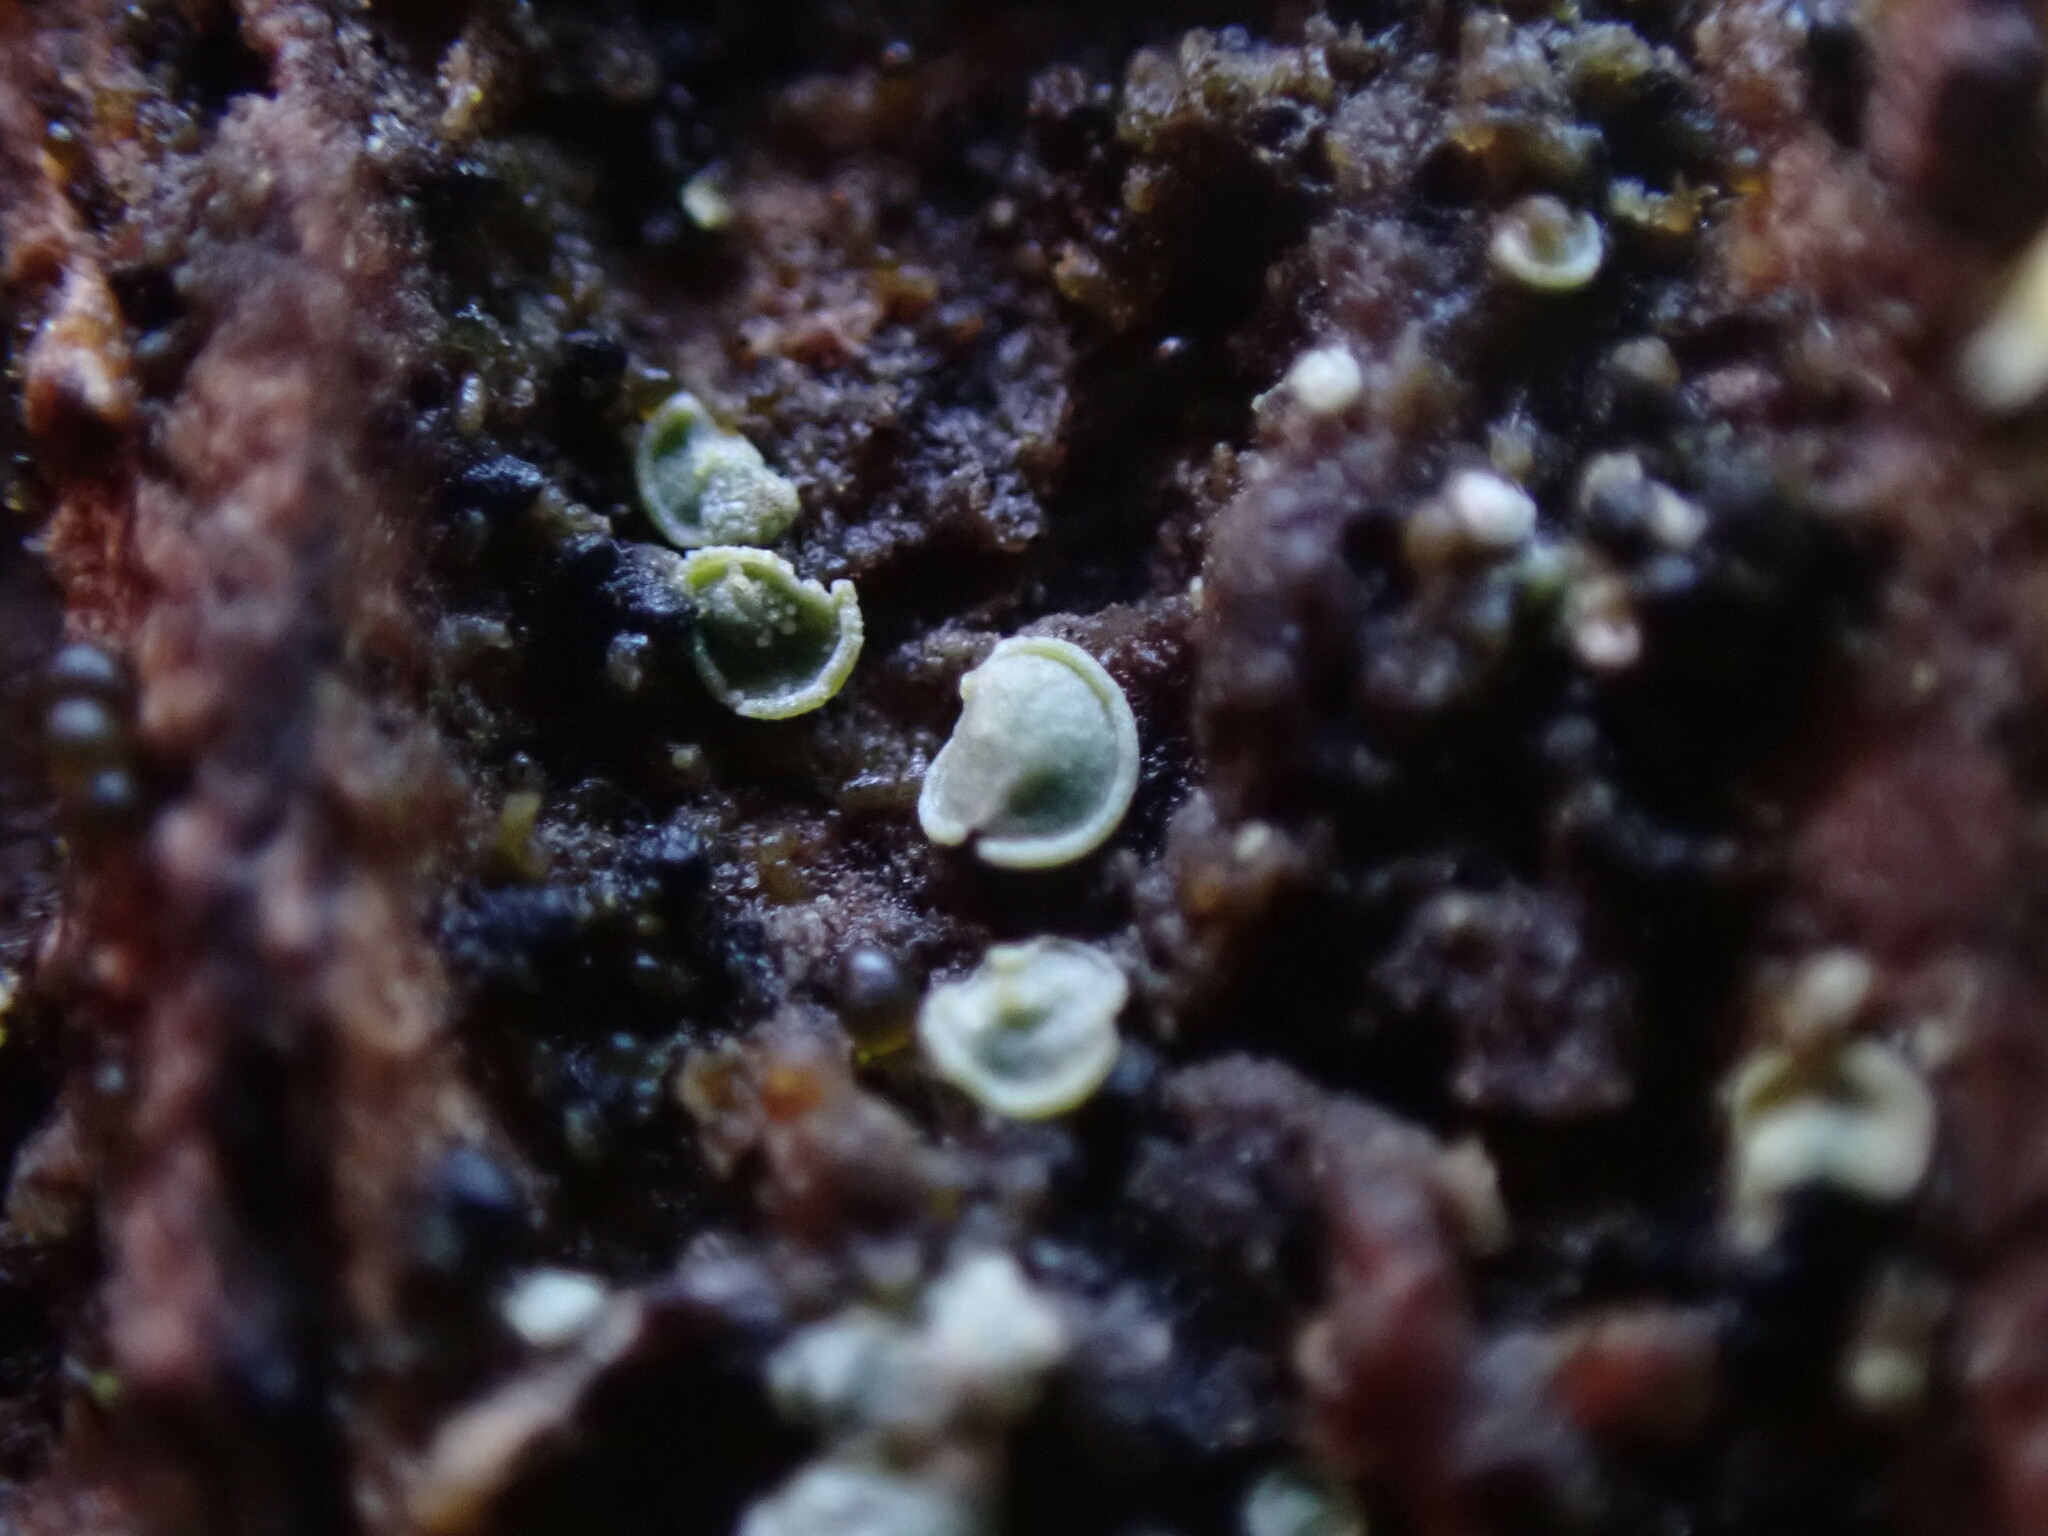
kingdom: Fungi
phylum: Ascomycota
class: Eurotiomycetes
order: Verrucariales
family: Verrucariaceae
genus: Normandina
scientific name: Normandina pulchella
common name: Elf ears lichen
